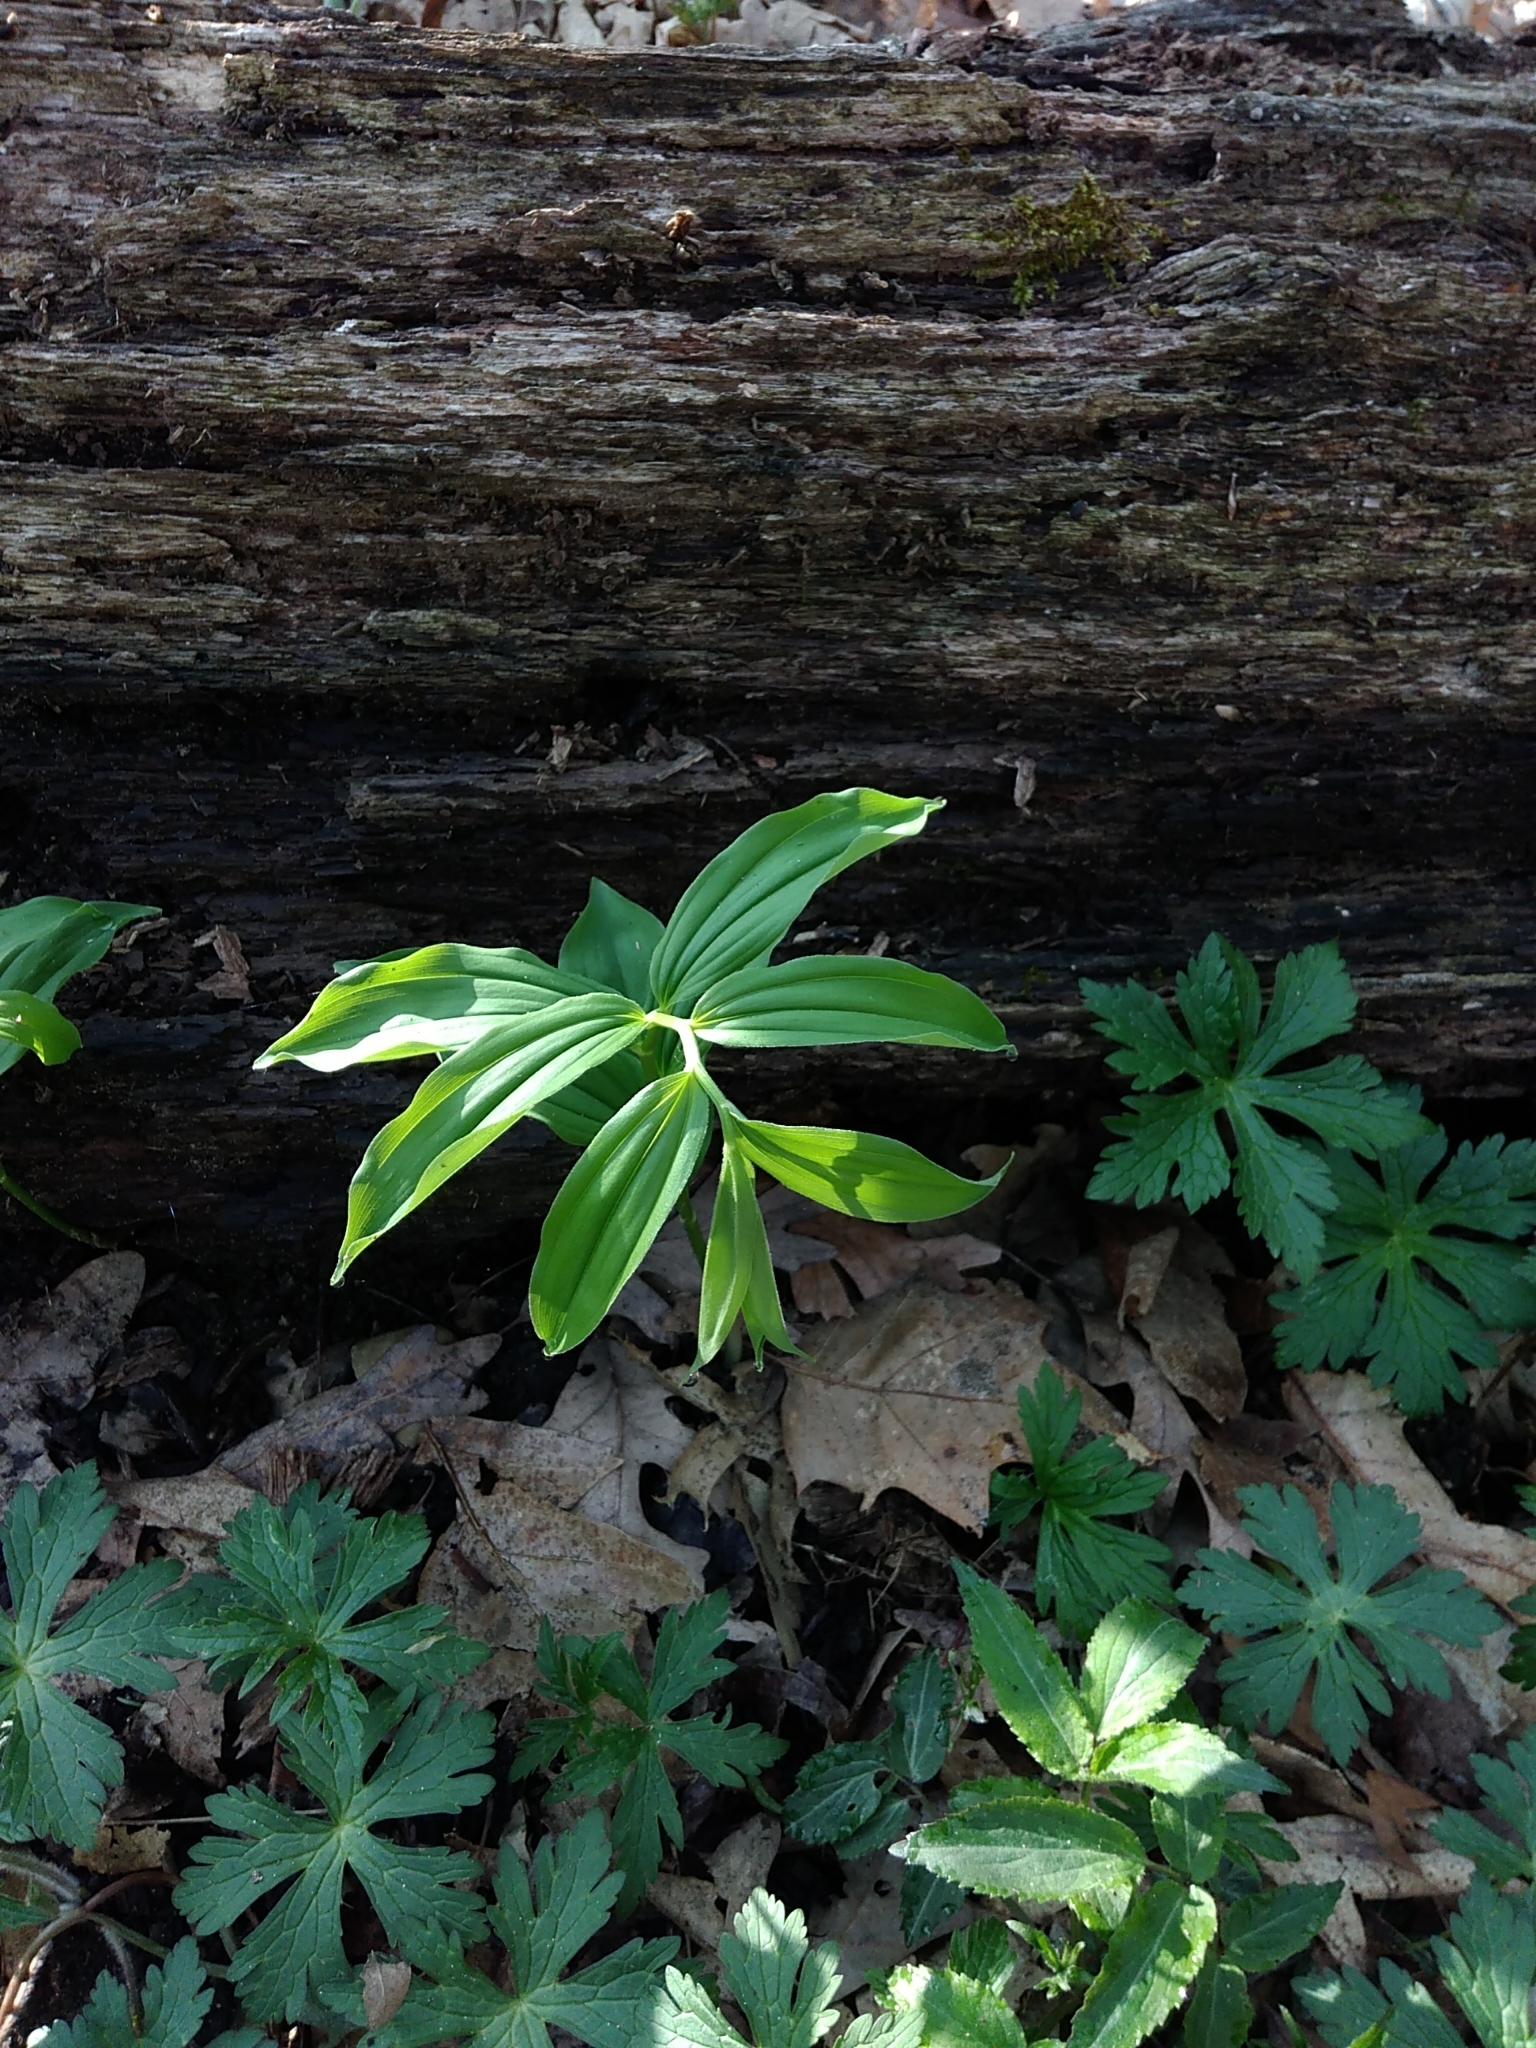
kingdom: Plantae
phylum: Tracheophyta
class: Liliopsida
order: Asparagales
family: Asparagaceae
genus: Maianthemum
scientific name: Maianthemum racemosum
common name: False spikenard
